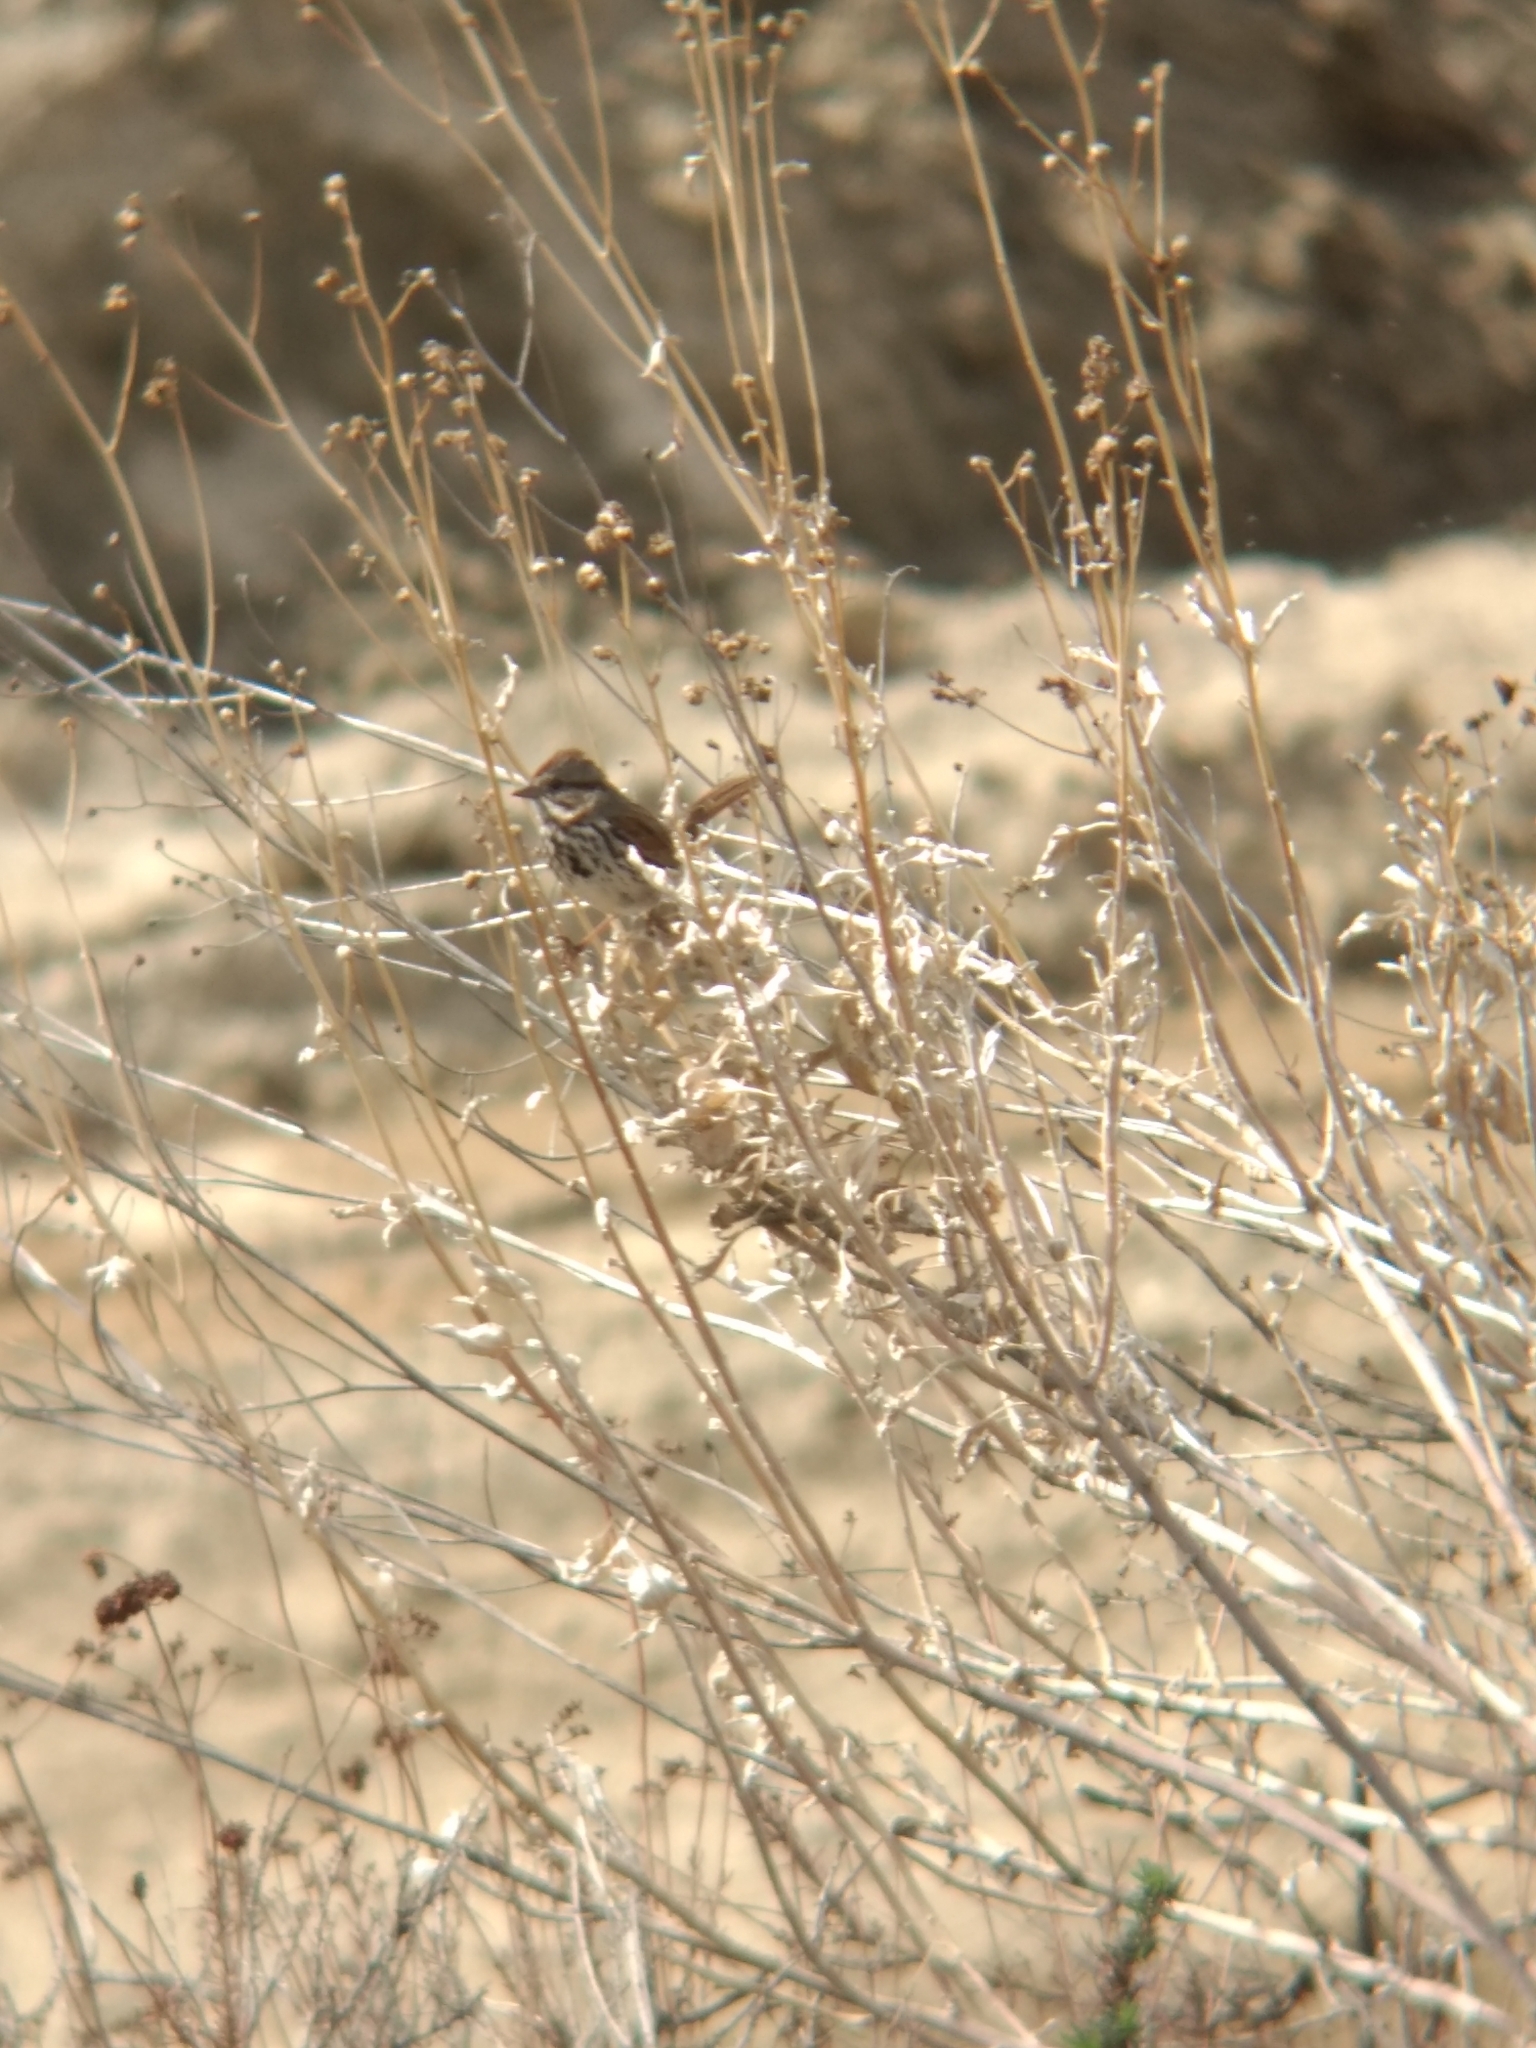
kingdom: Animalia
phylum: Chordata
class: Aves
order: Passeriformes
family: Passerellidae
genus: Melospiza
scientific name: Melospiza melodia
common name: Song sparrow
